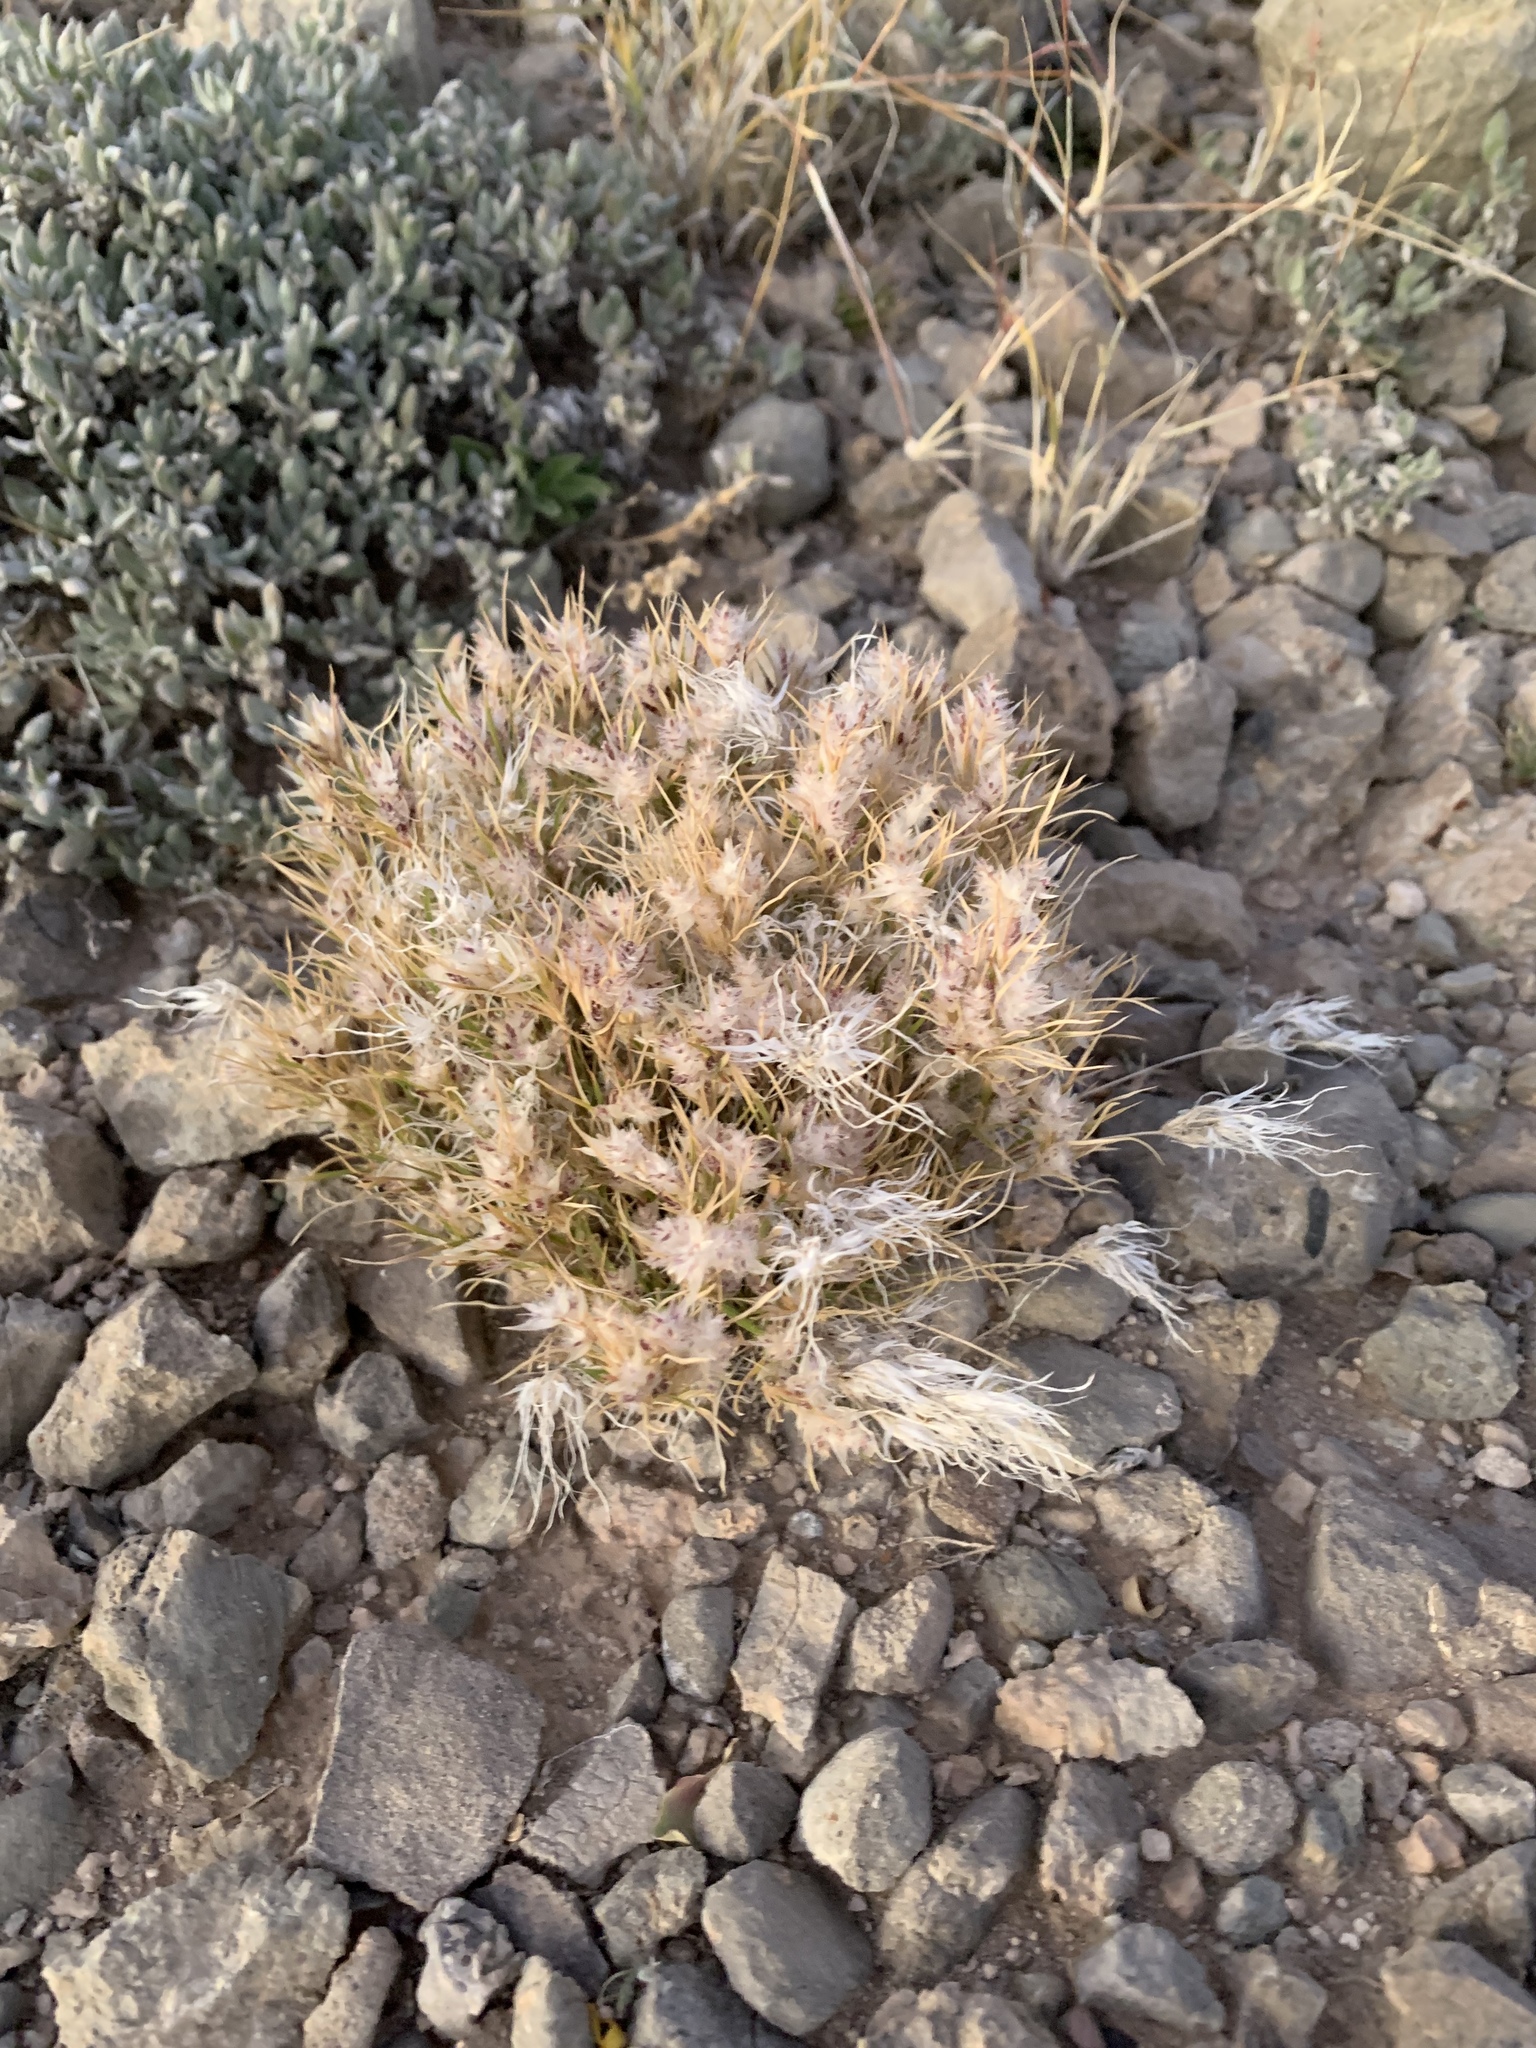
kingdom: Plantae
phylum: Tracheophyta
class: Liliopsida
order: Poales
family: Poaceae
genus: Dasyochloa
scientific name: Dasyochloa pulchella
